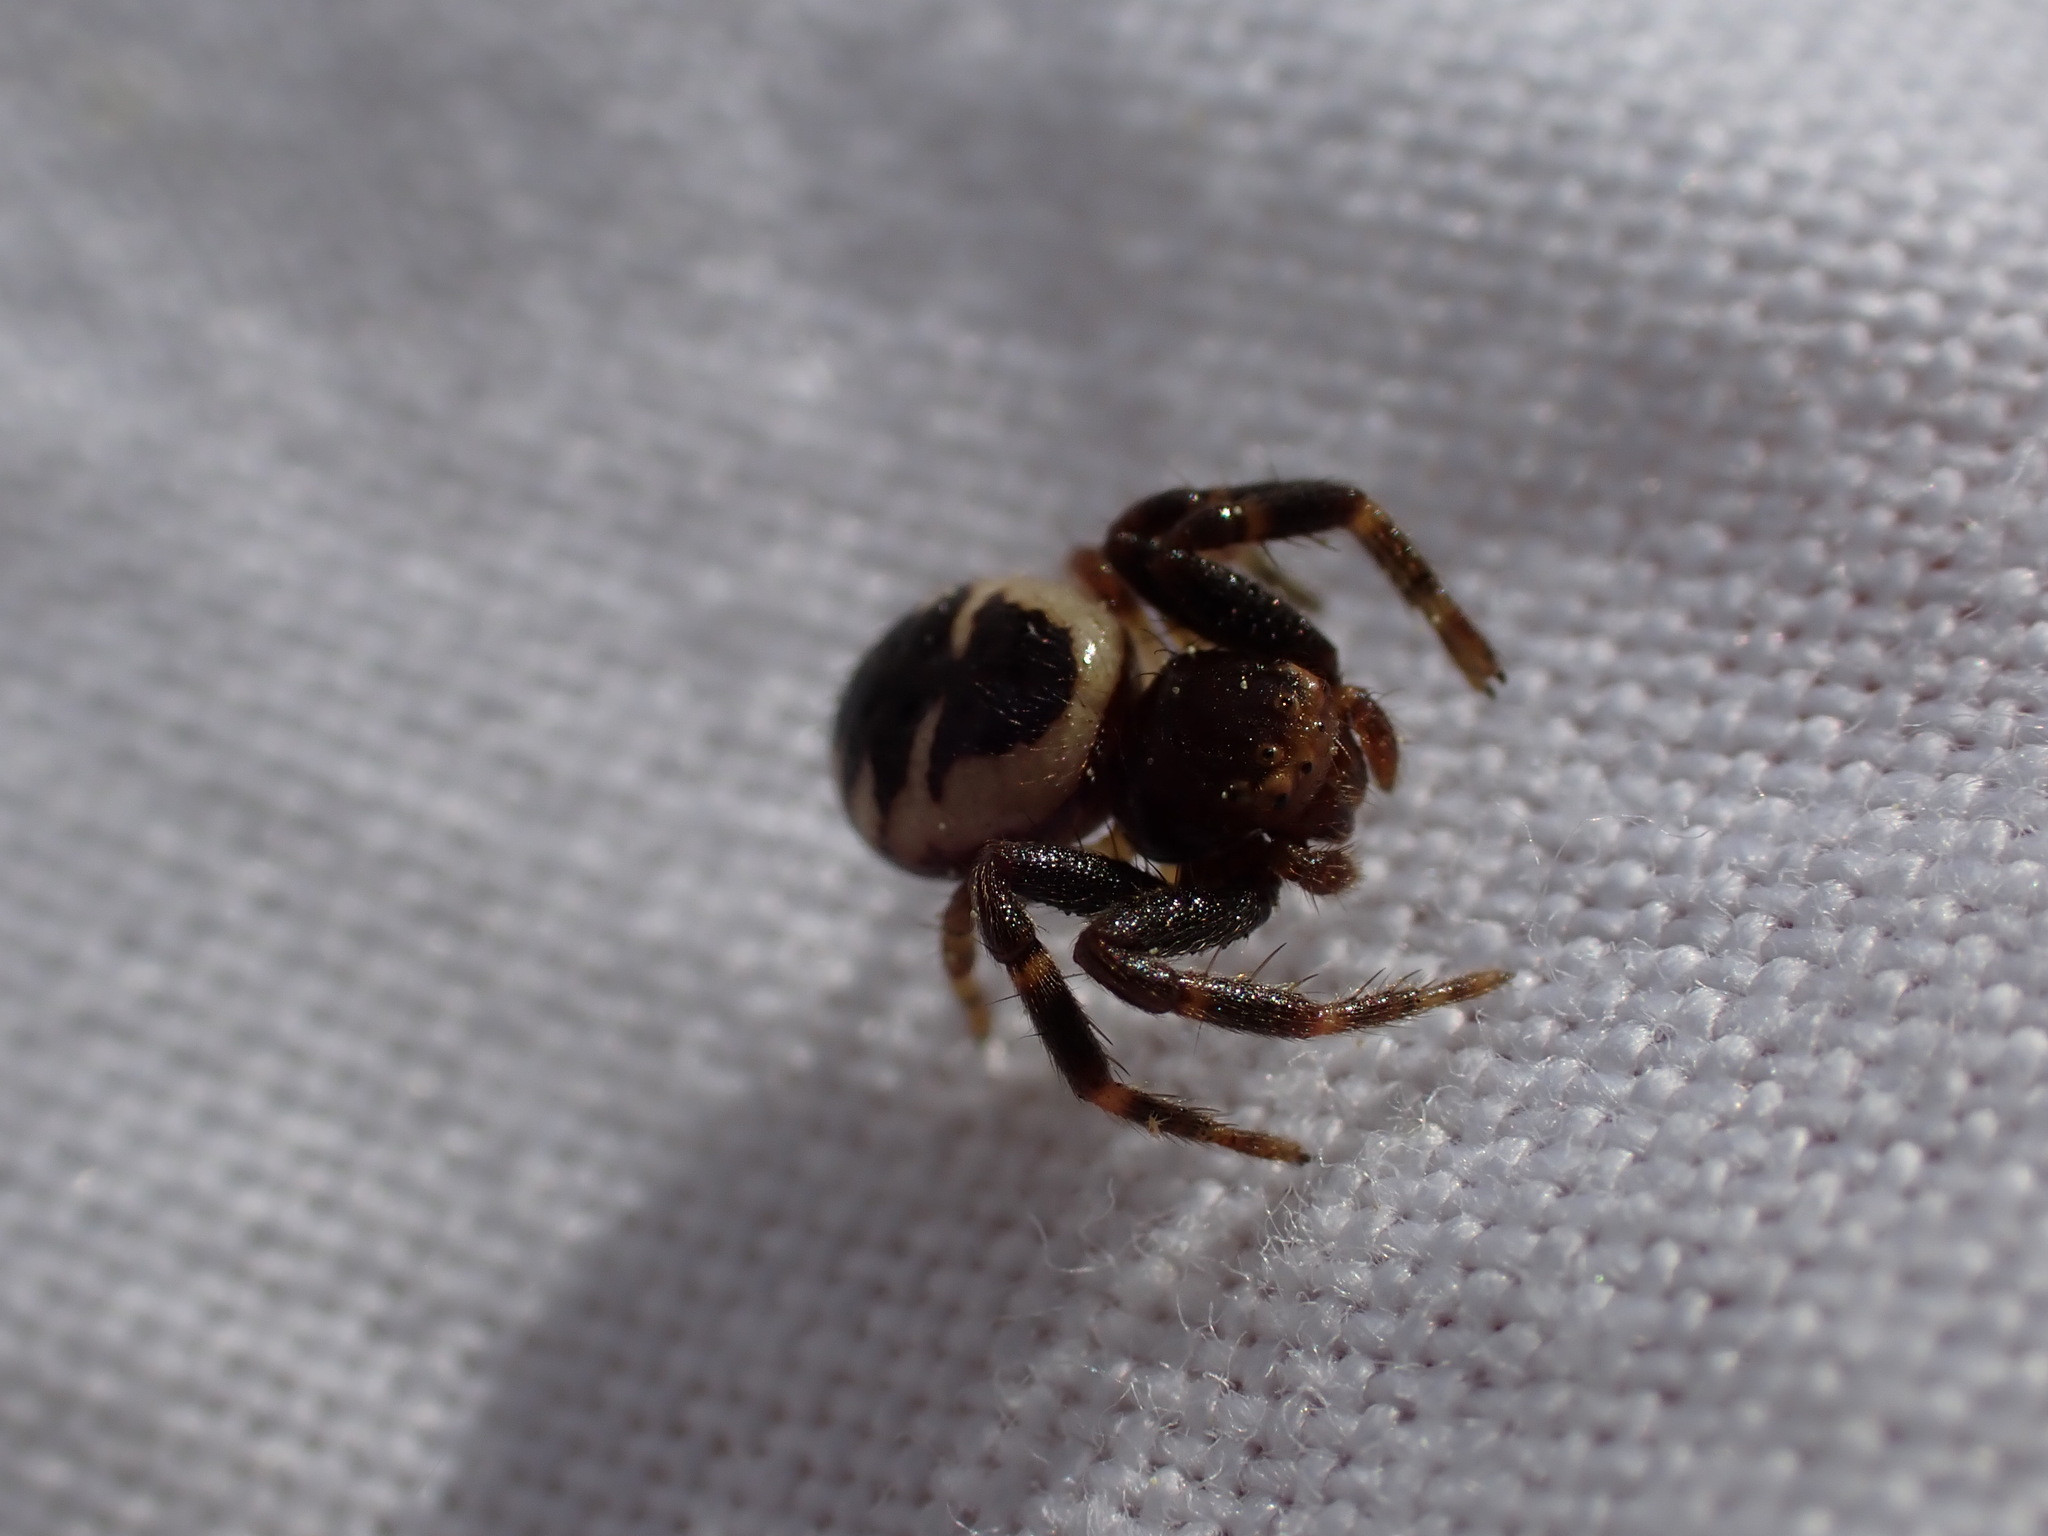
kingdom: Animalia
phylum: Arthropoda
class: Arachnida
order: Araneae
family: Thomisidae
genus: Synema
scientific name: Synema globosum
